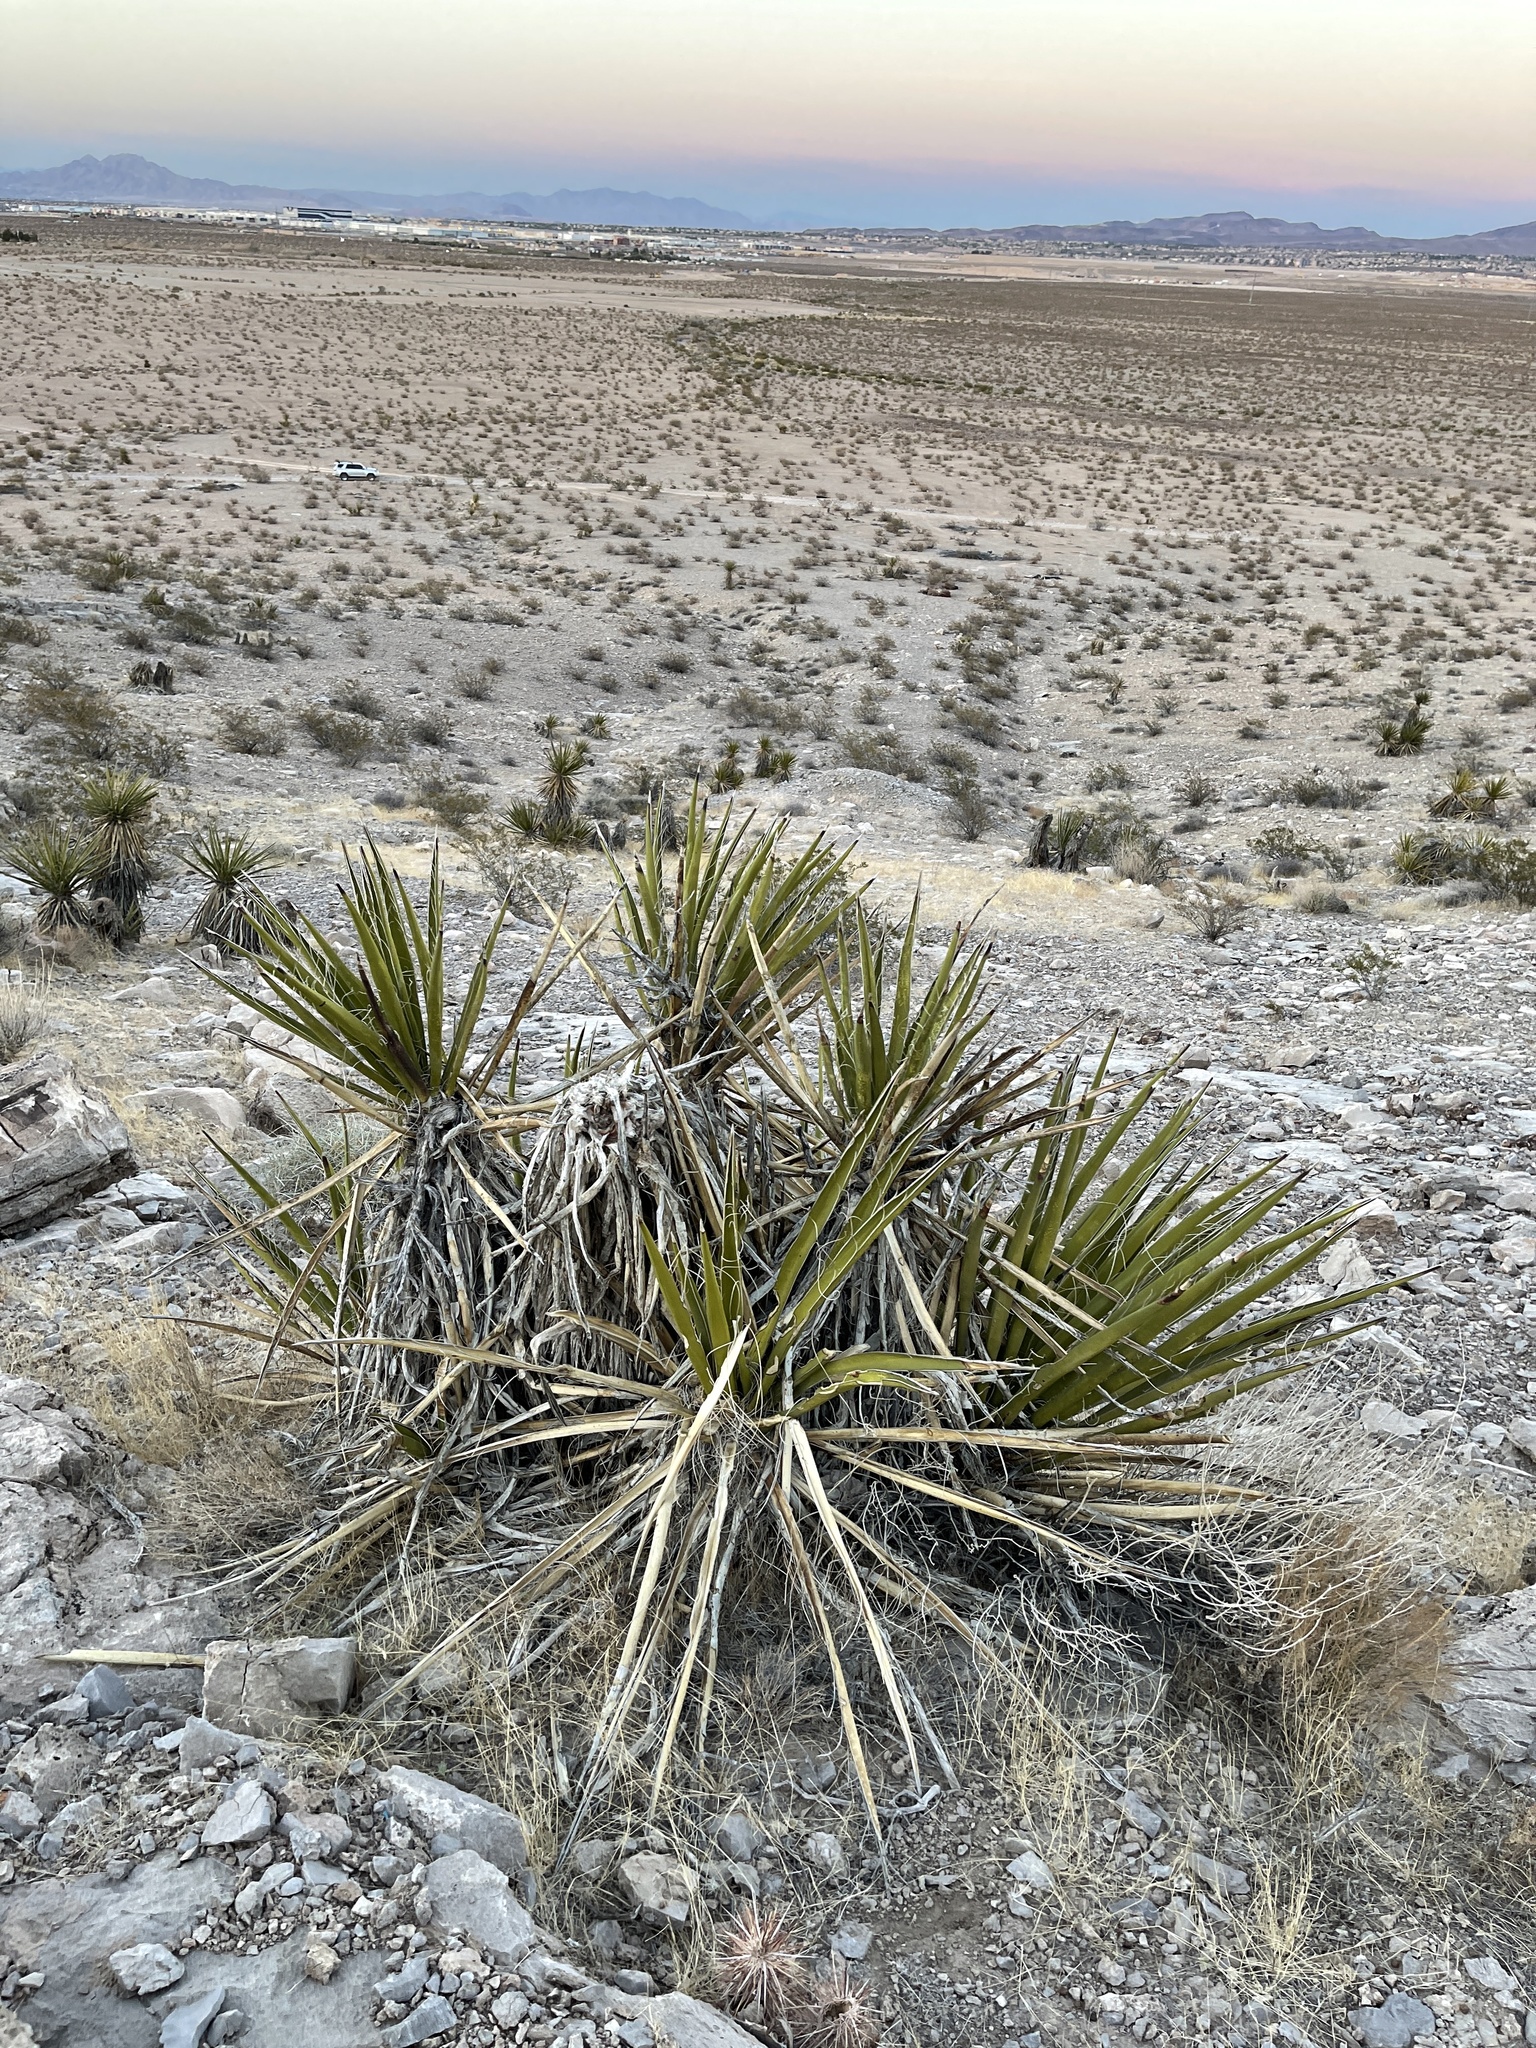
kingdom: Plantae
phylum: Tracheophyta
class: Liliopsida
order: Asparagales
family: Asparagaceae
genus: Yucca
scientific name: Yucca schidigera
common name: Mojave yucca
